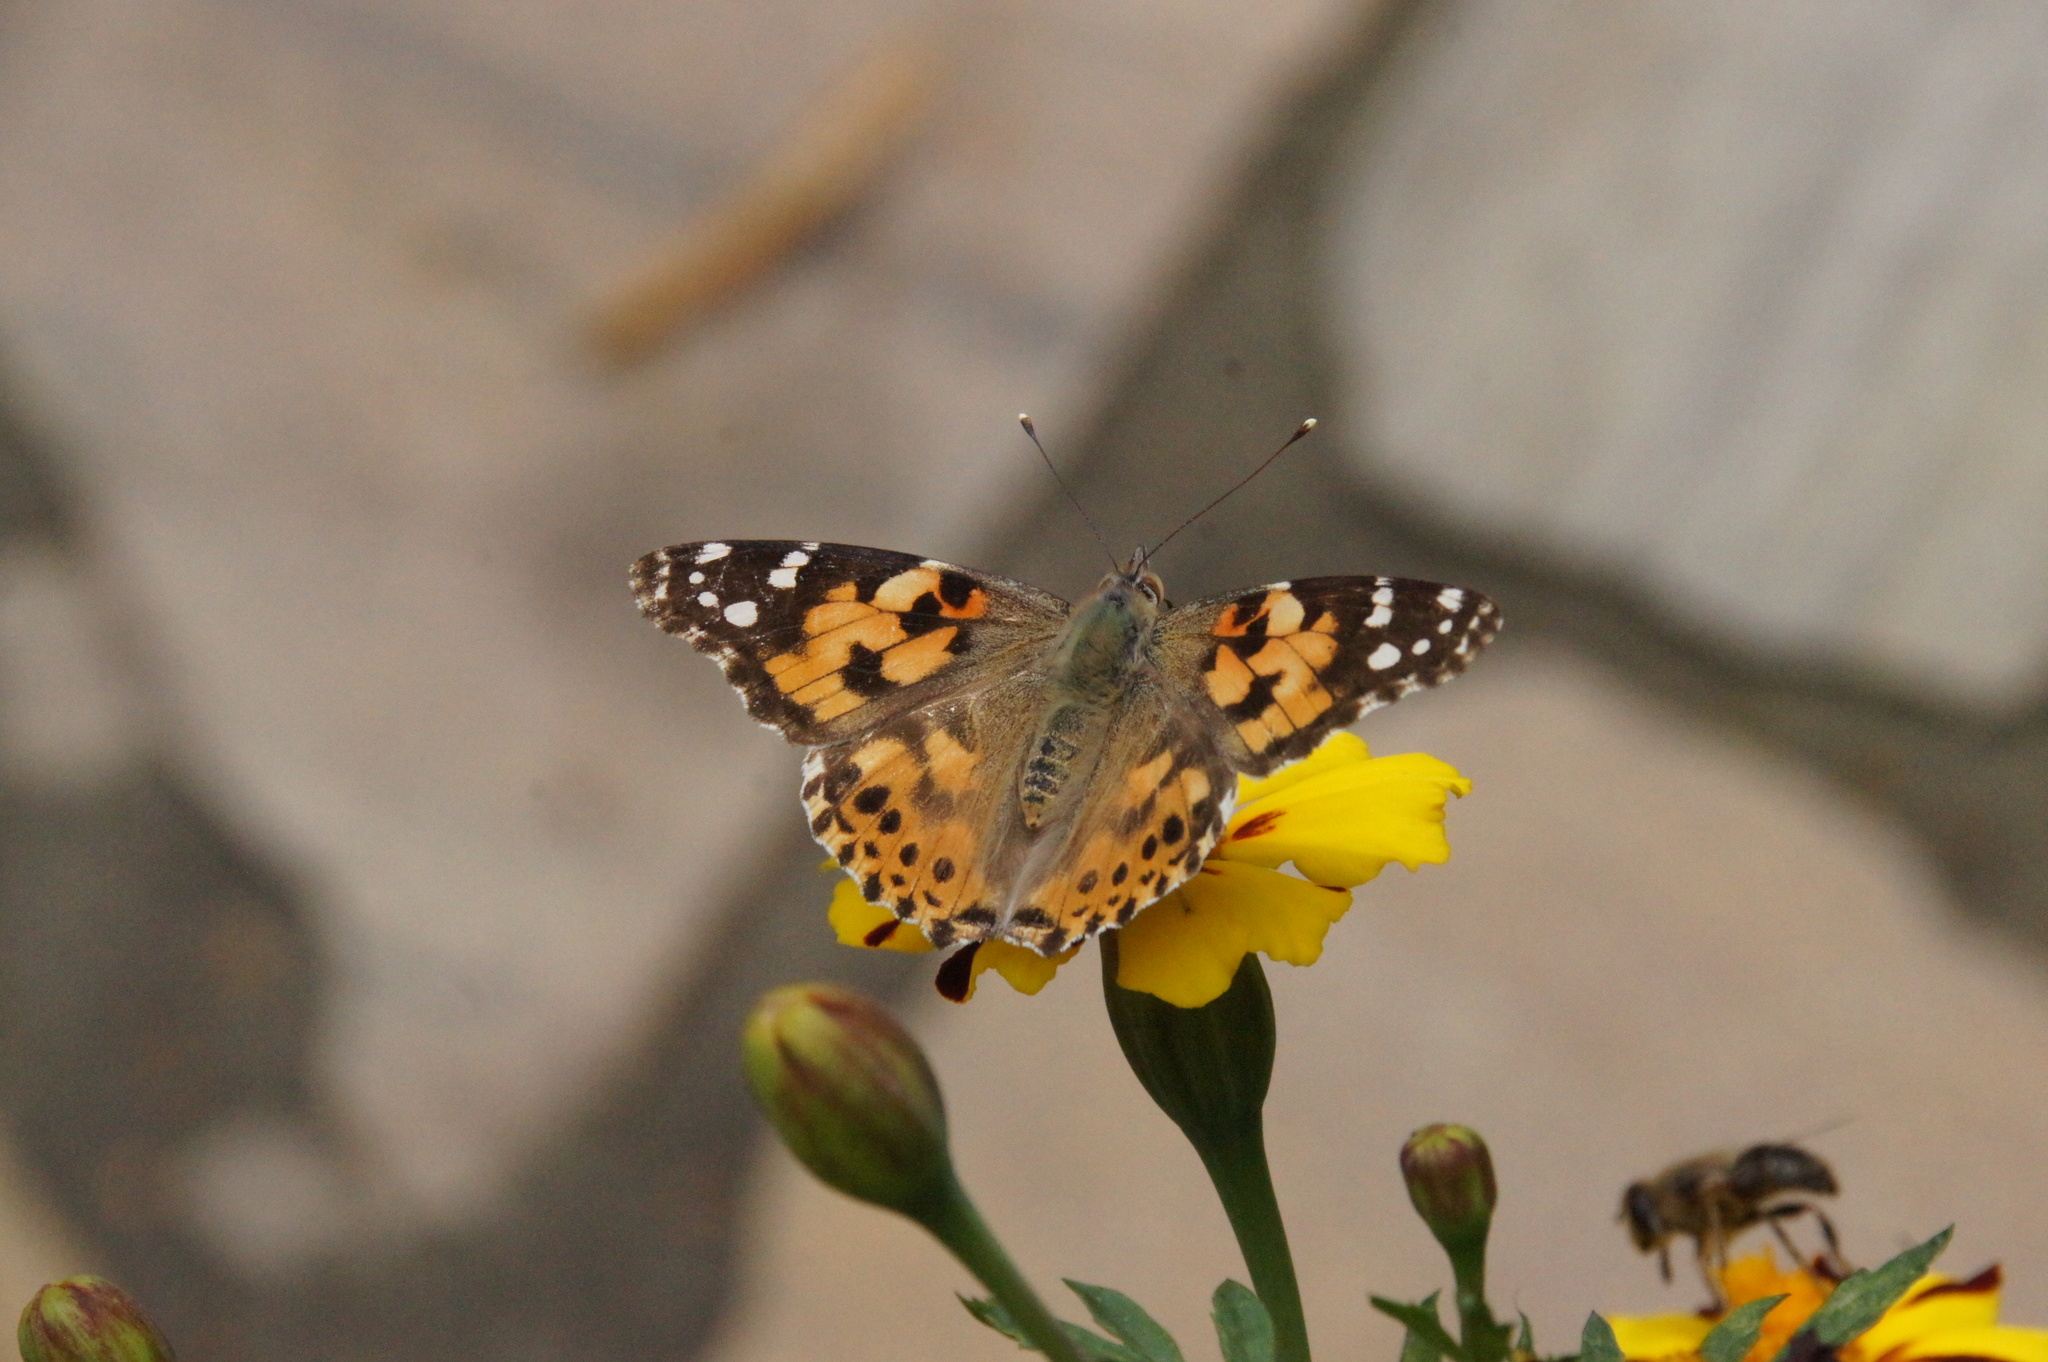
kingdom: Animalia
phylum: Arthropoda
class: Insecta
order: Lepidoptera
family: Nymphalidae
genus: Vanessa
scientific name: Vanessa cardui
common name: Painted lady
